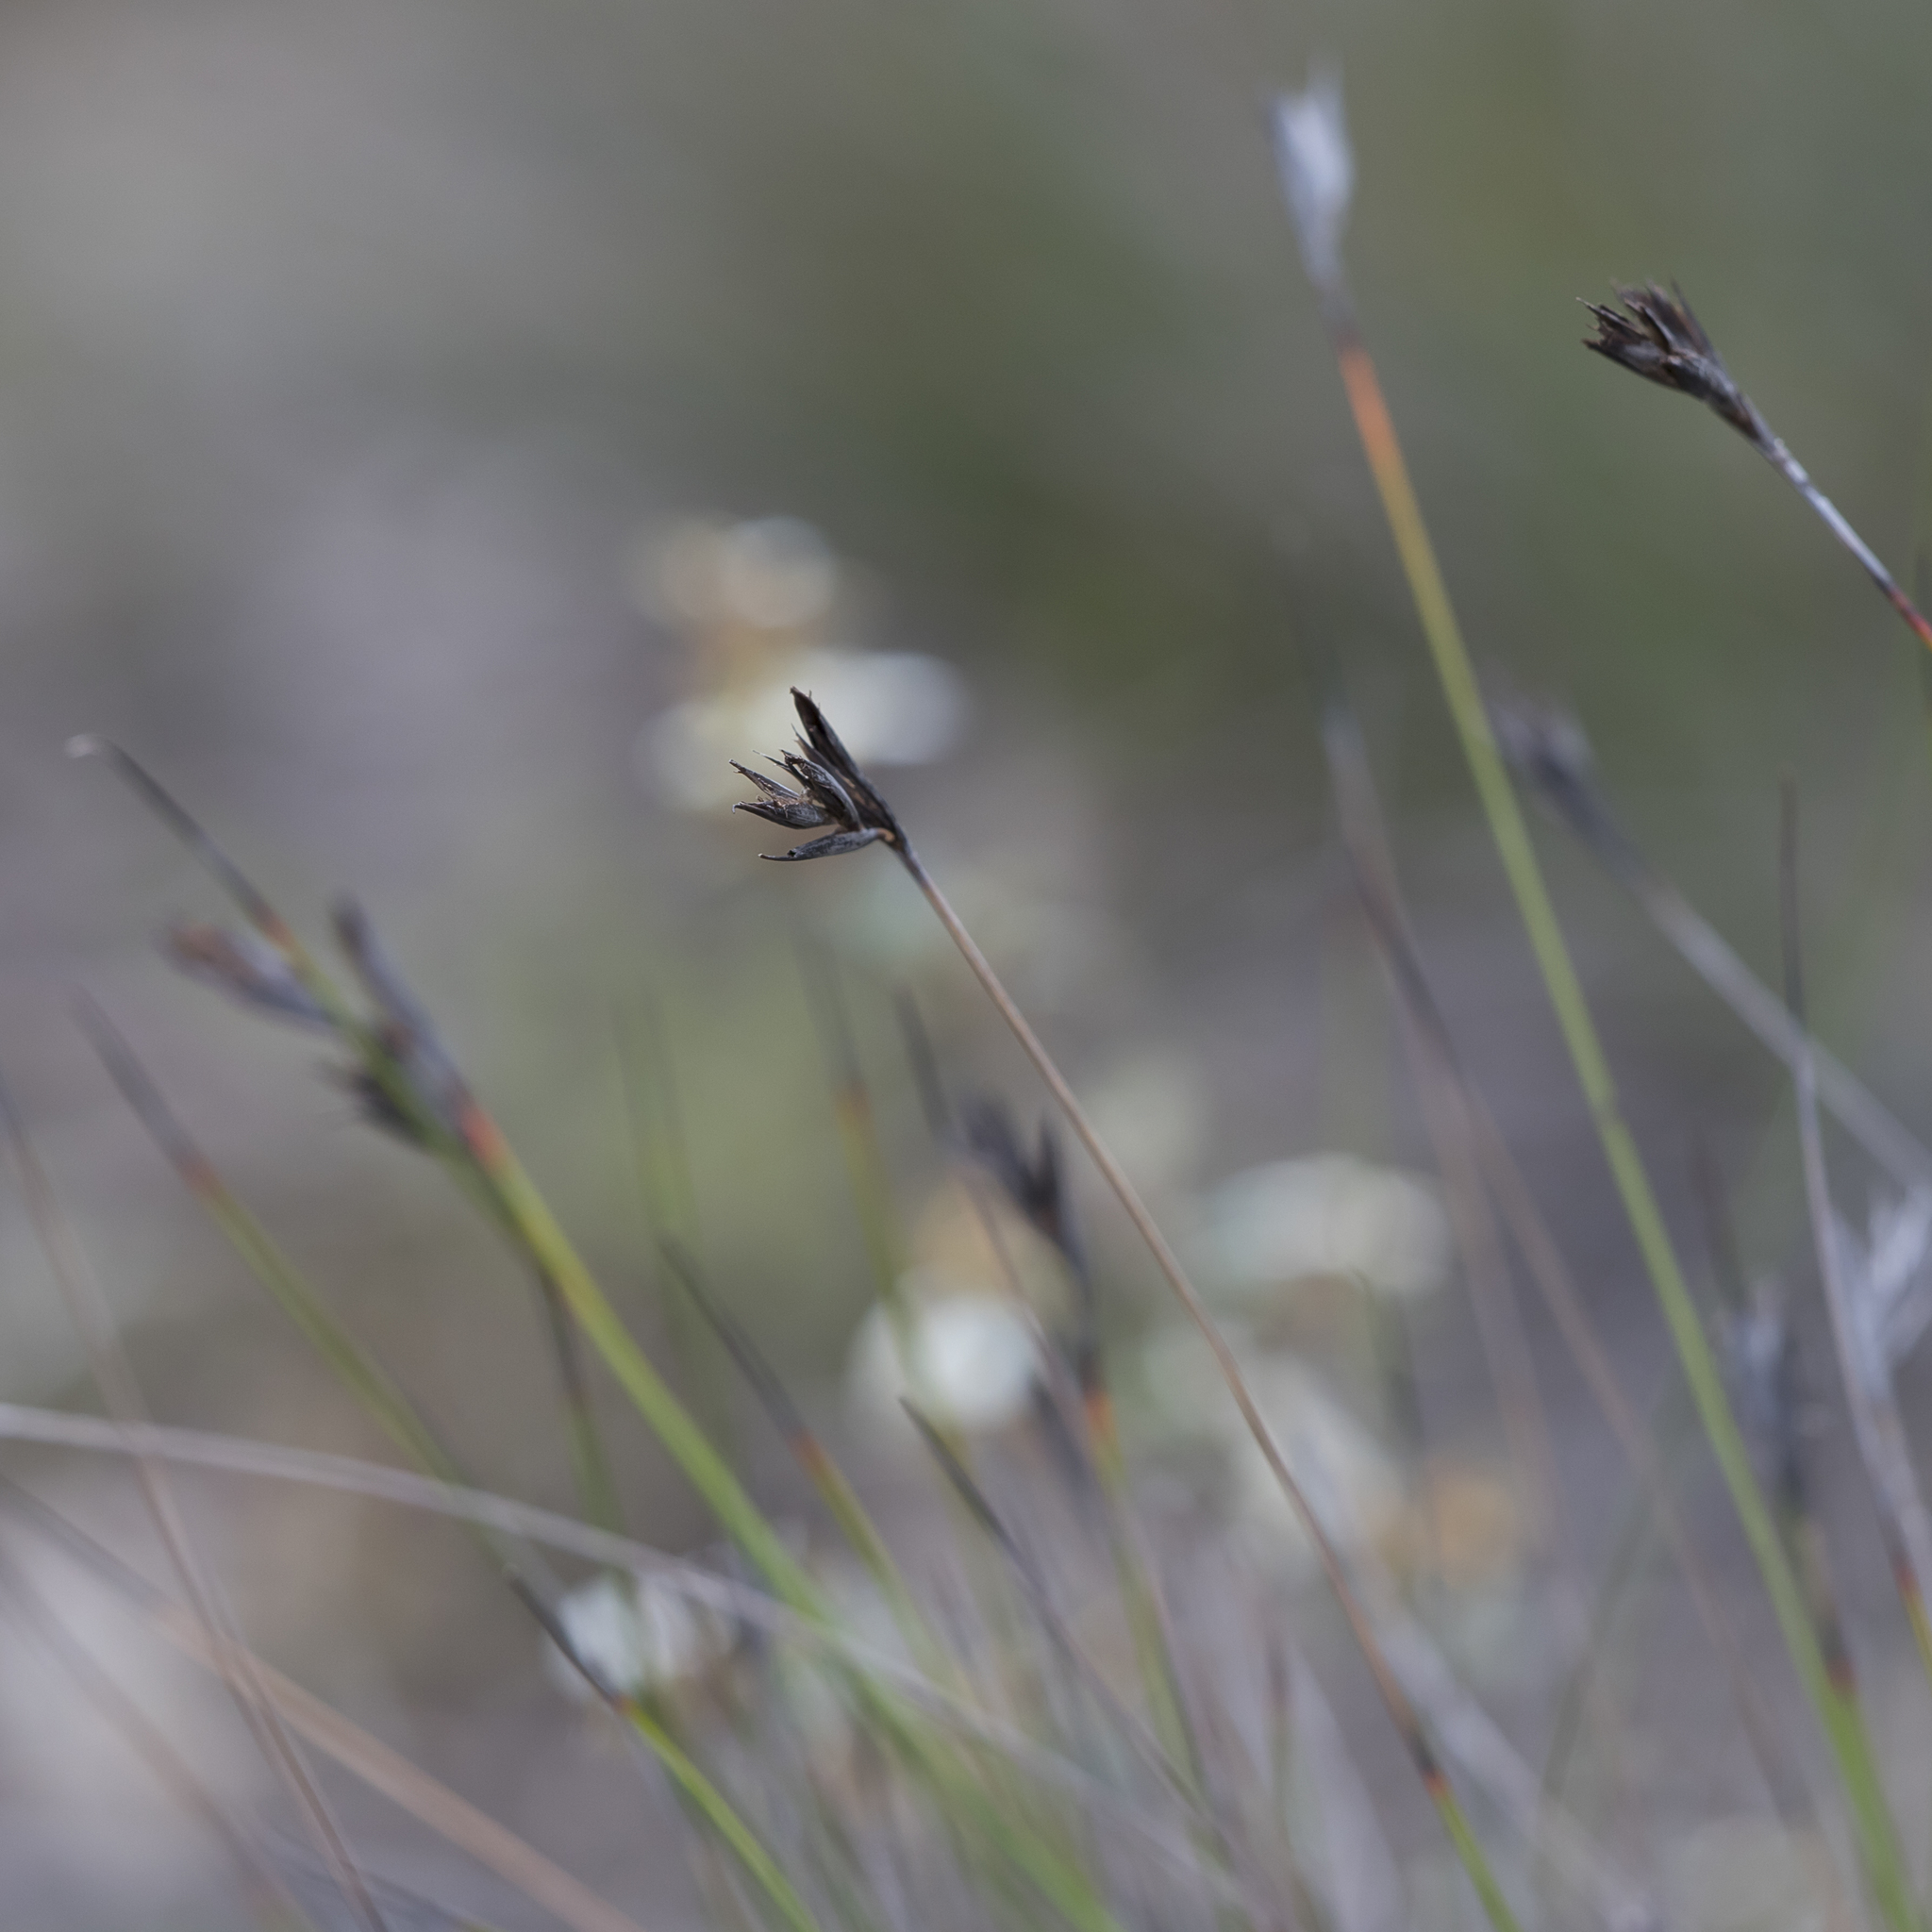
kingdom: Plantae
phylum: Tracheophyta
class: Liliopsida
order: Poales
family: Cyperaceae
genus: Lepidosperma
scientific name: Lepidosperma carphoides
